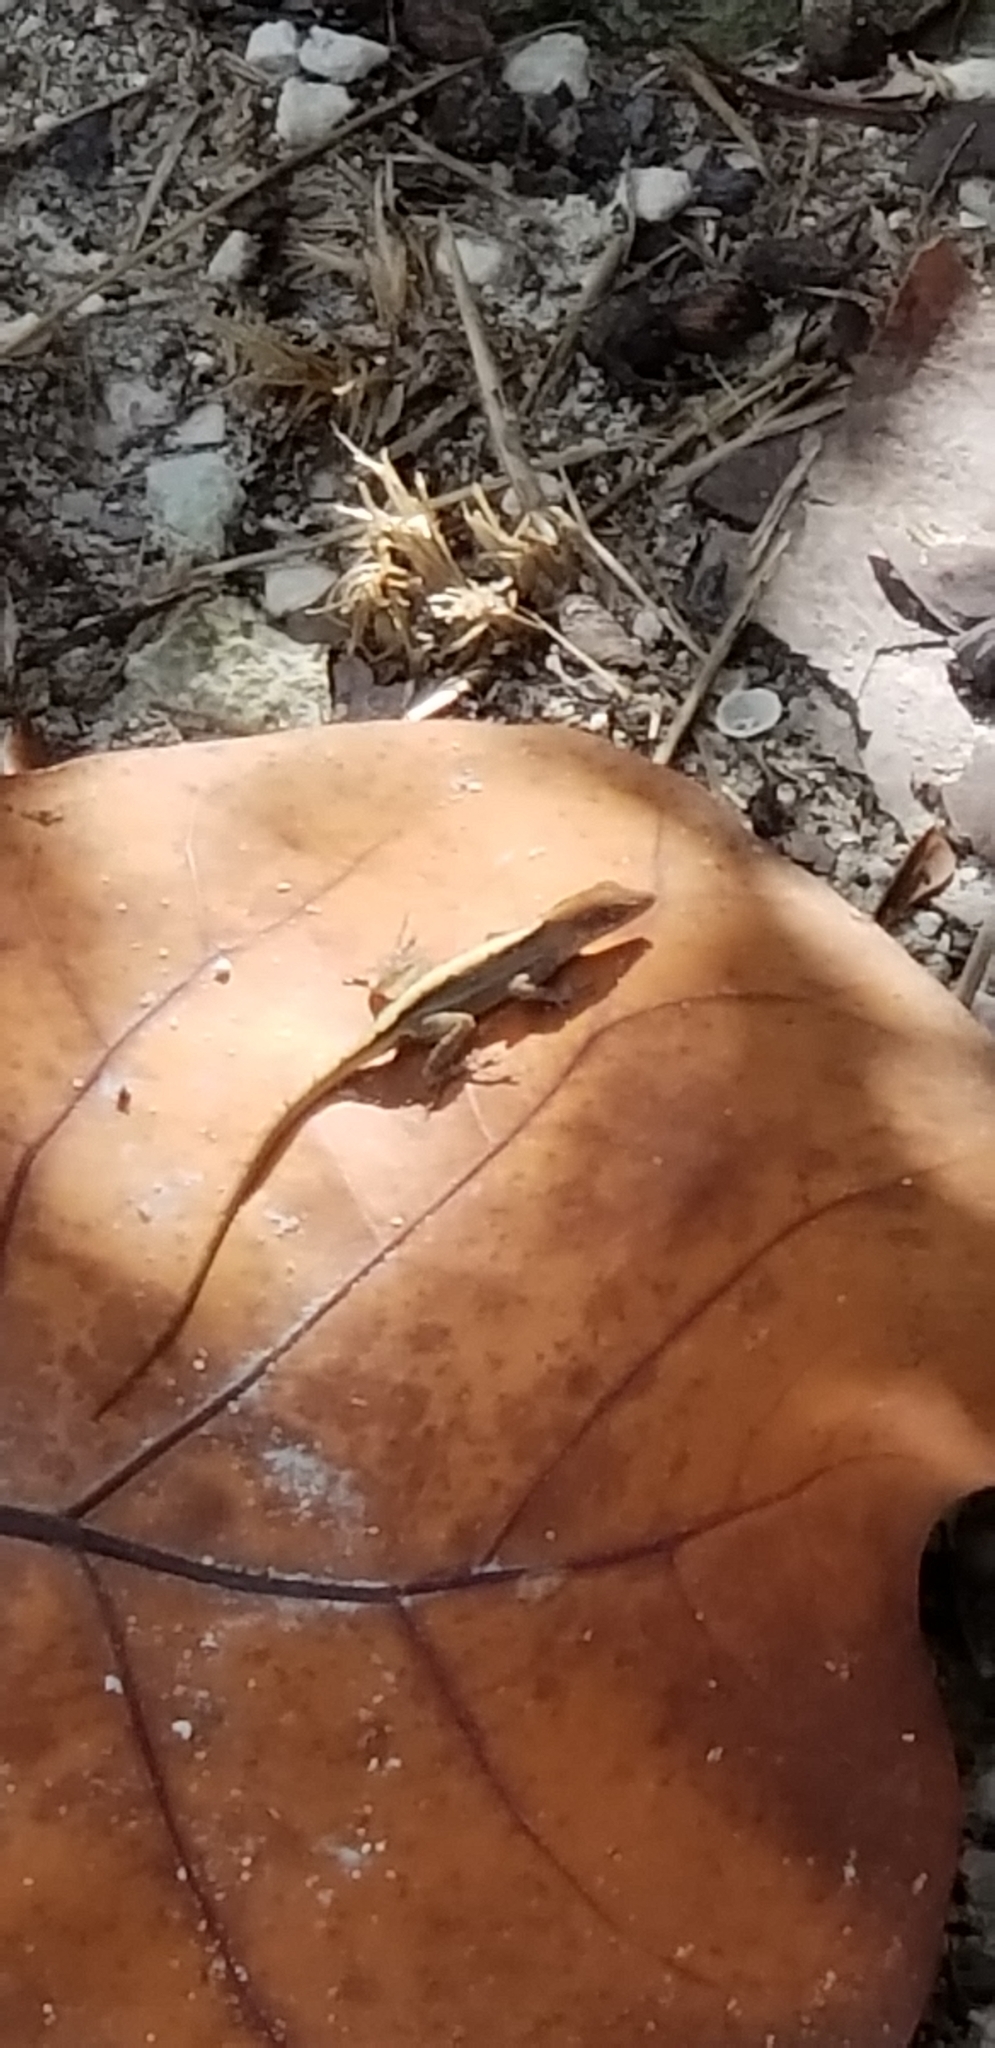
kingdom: Animalia
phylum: Chordata
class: Squamata
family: Dactyloidae
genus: Anolis
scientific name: Anolis sagrei
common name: Brown anole
